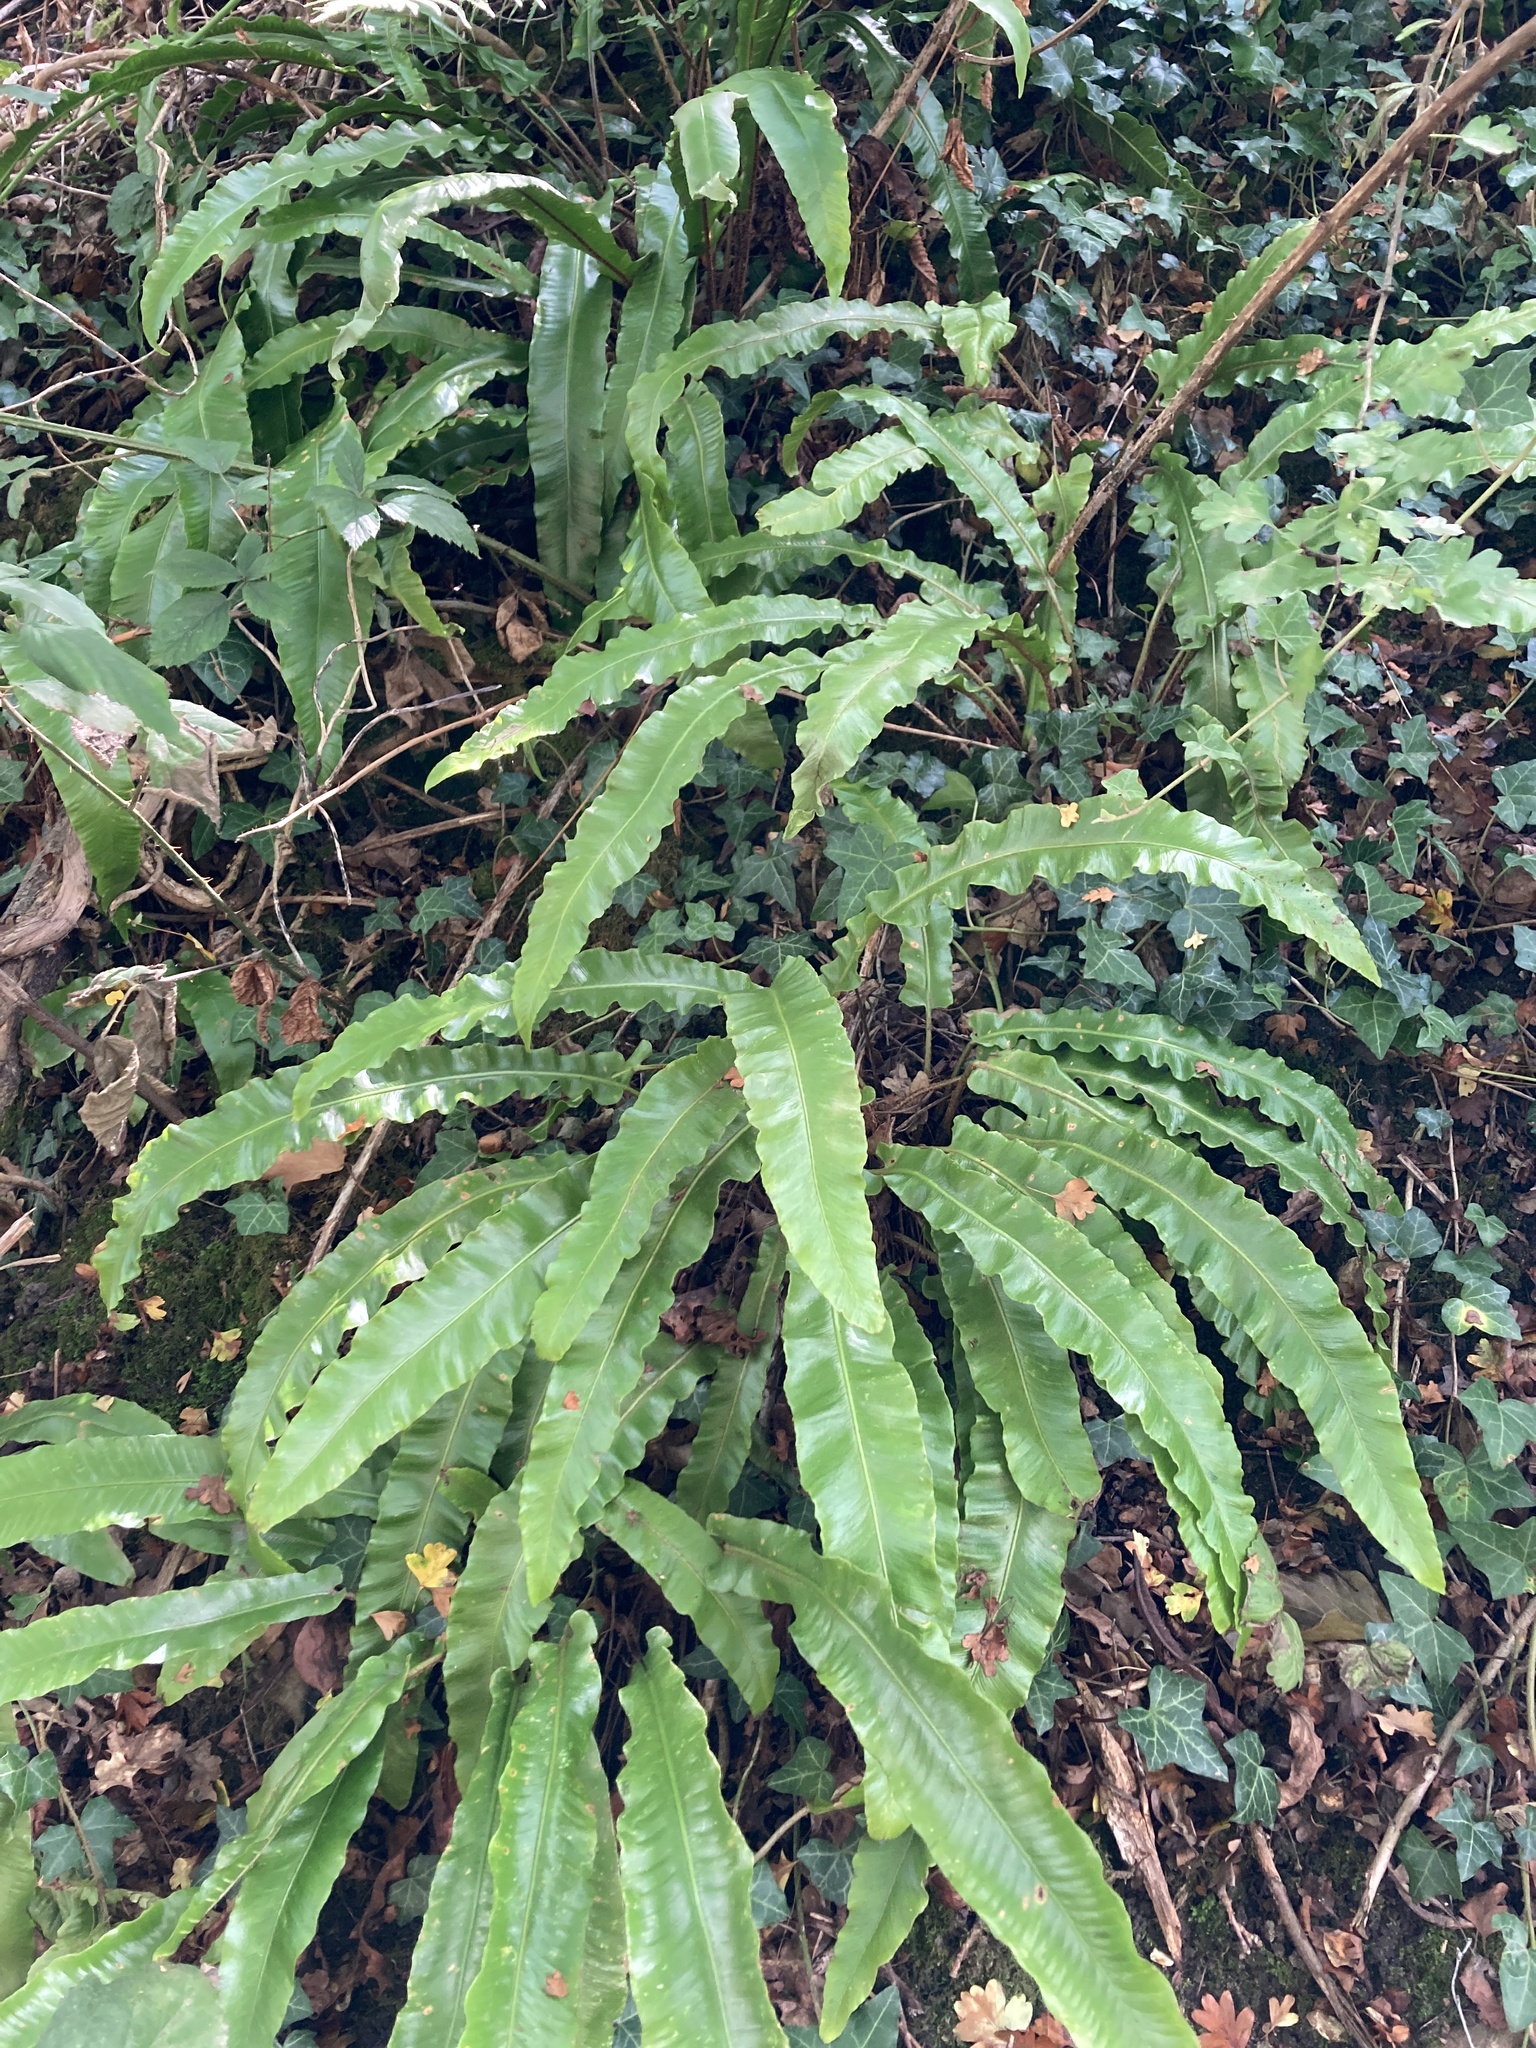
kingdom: Plantae
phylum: Tracheophyta
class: Polypodiopsida
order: Polypodiales
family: Aspleniaceae
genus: Asplenium
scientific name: Asplenium scolopendrium
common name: Hart's-tongue fern
